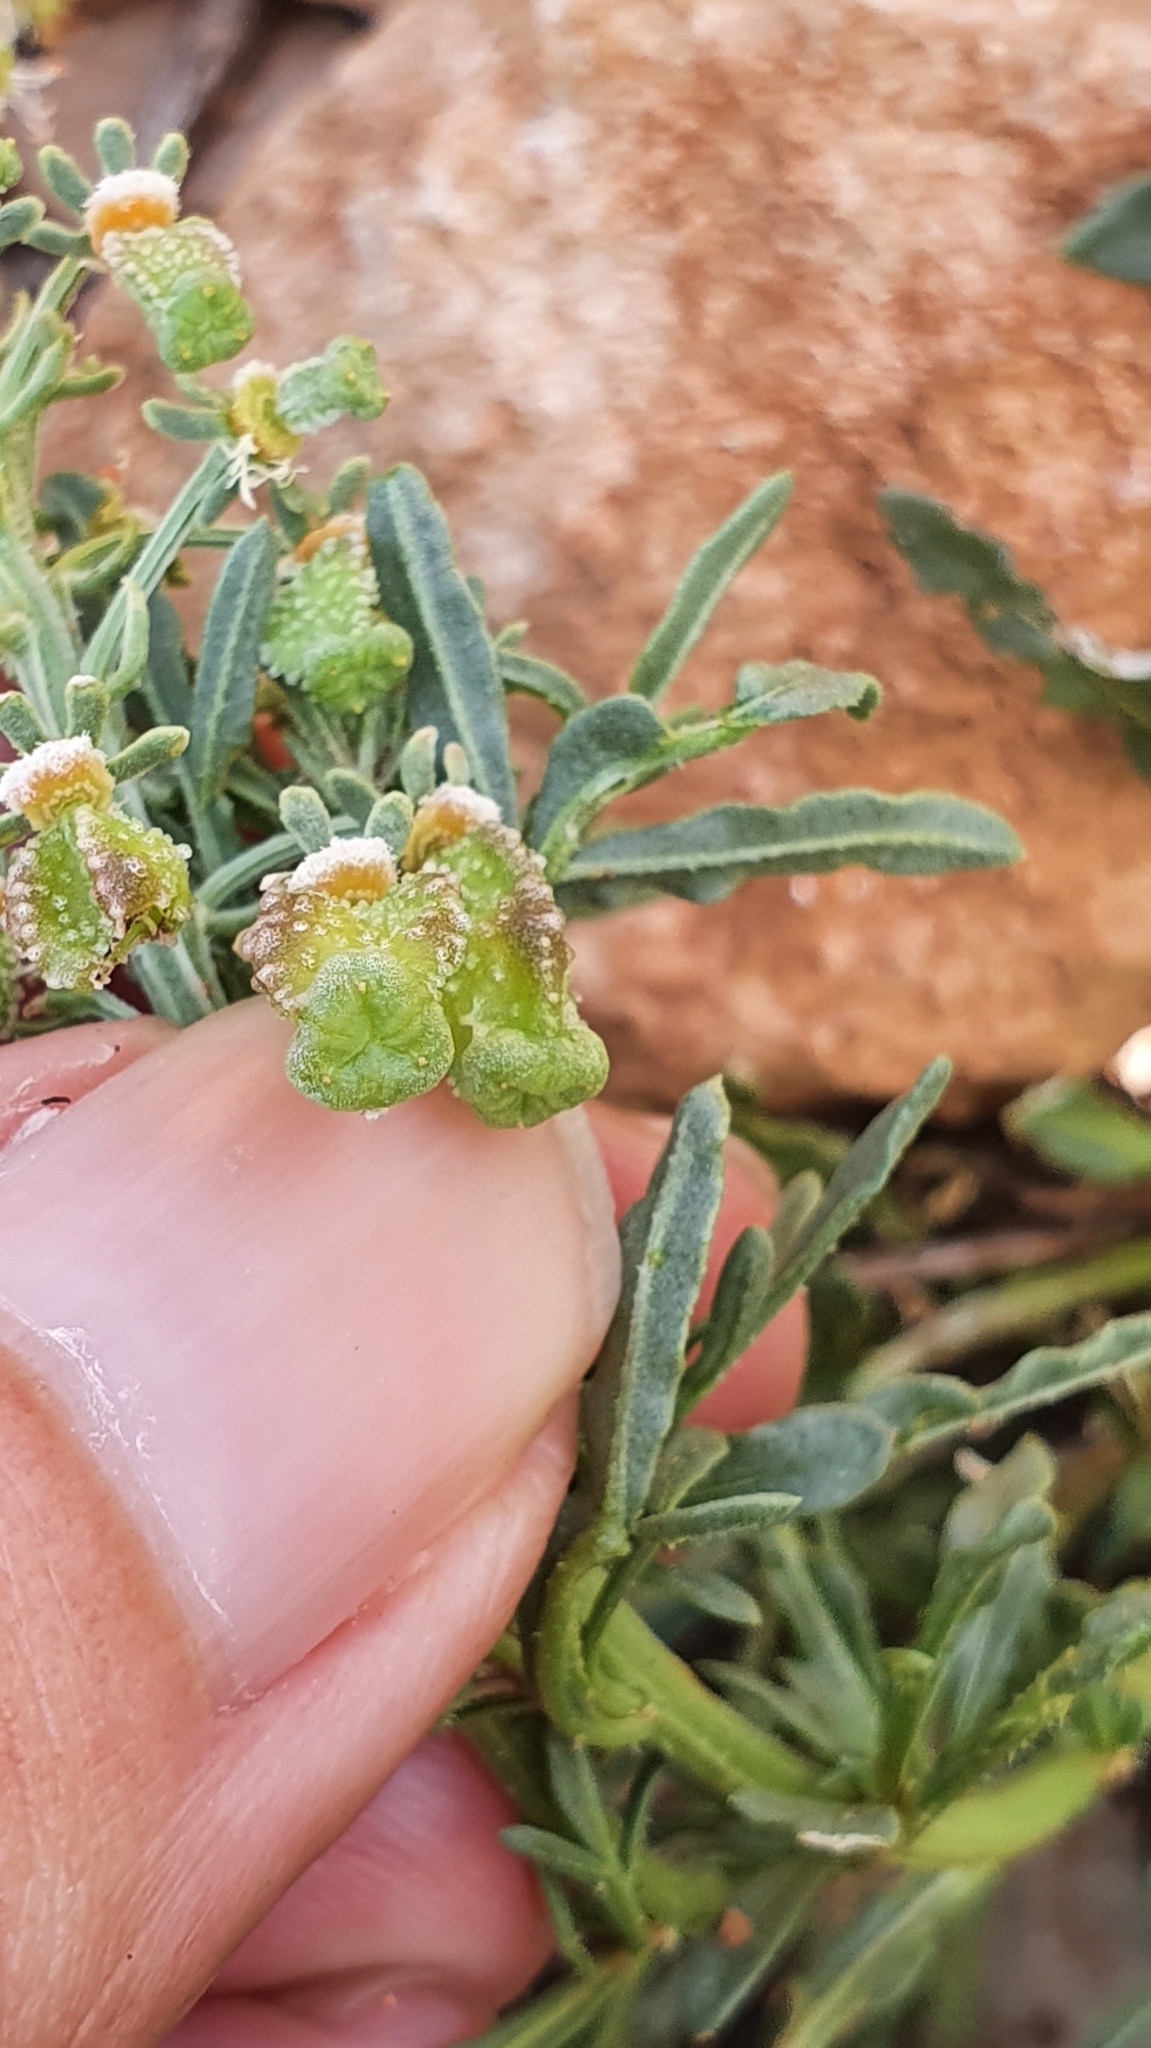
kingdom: Plantae
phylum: Tracheophyta
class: Magnoliopsida
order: Brassicales
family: Resedaceae
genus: Reseda
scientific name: Reseda duriaeana
